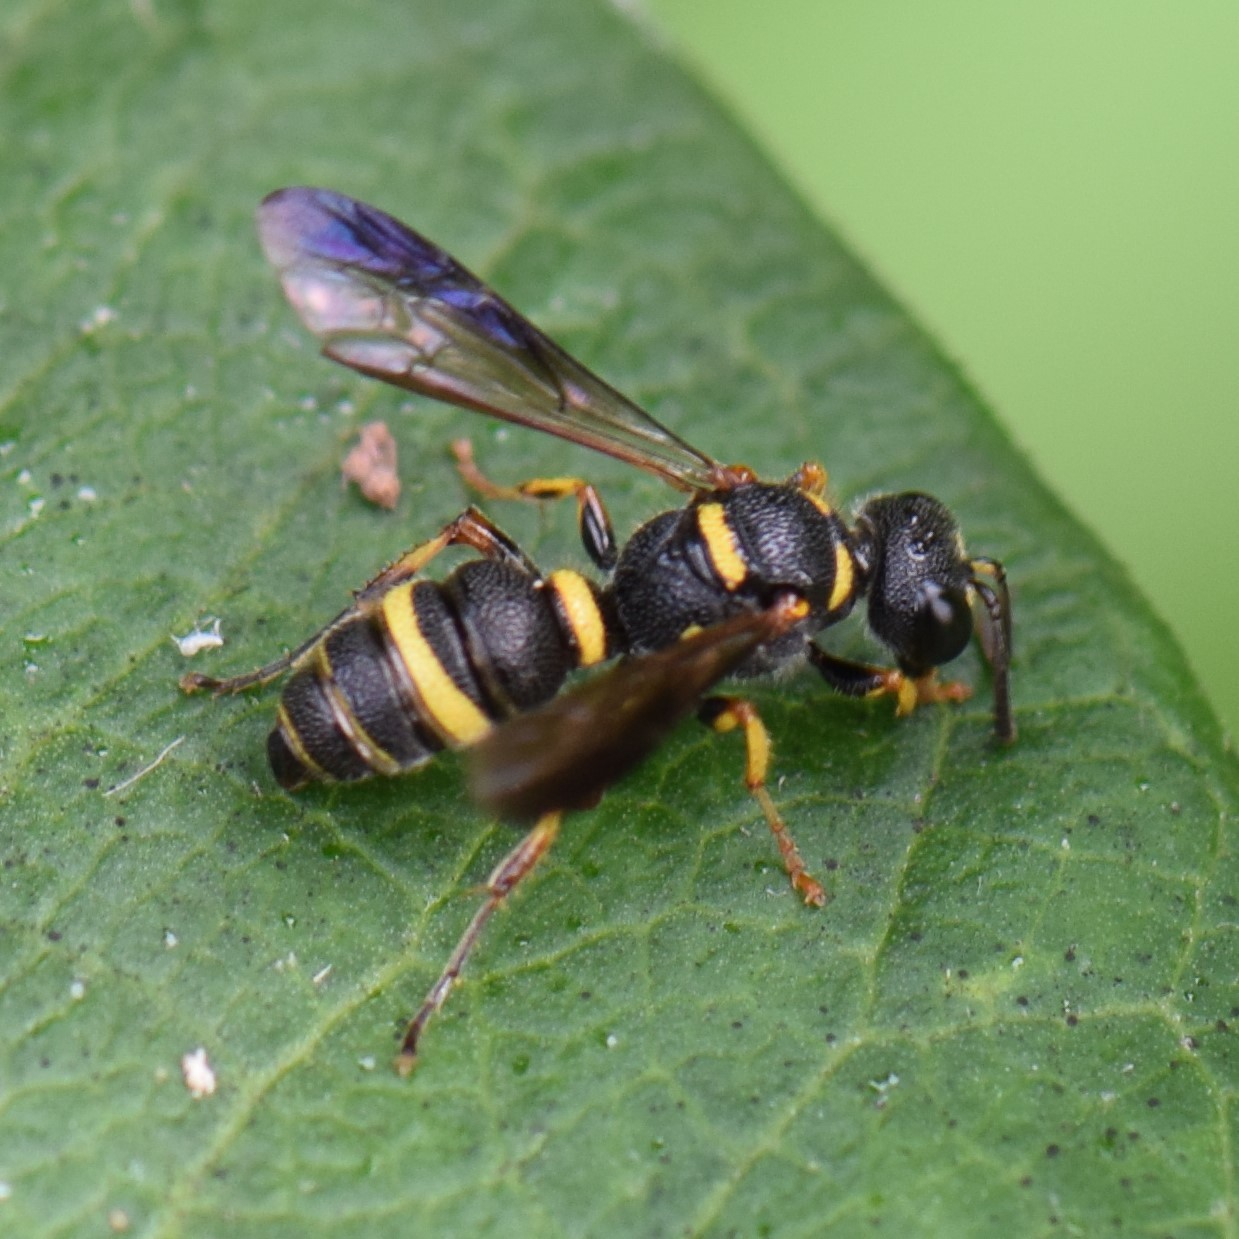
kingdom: Animalia
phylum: Arthropoda
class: Insecta
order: Hymenoptera
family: Crabronidae
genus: Cerceris
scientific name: Cerceris insolita
